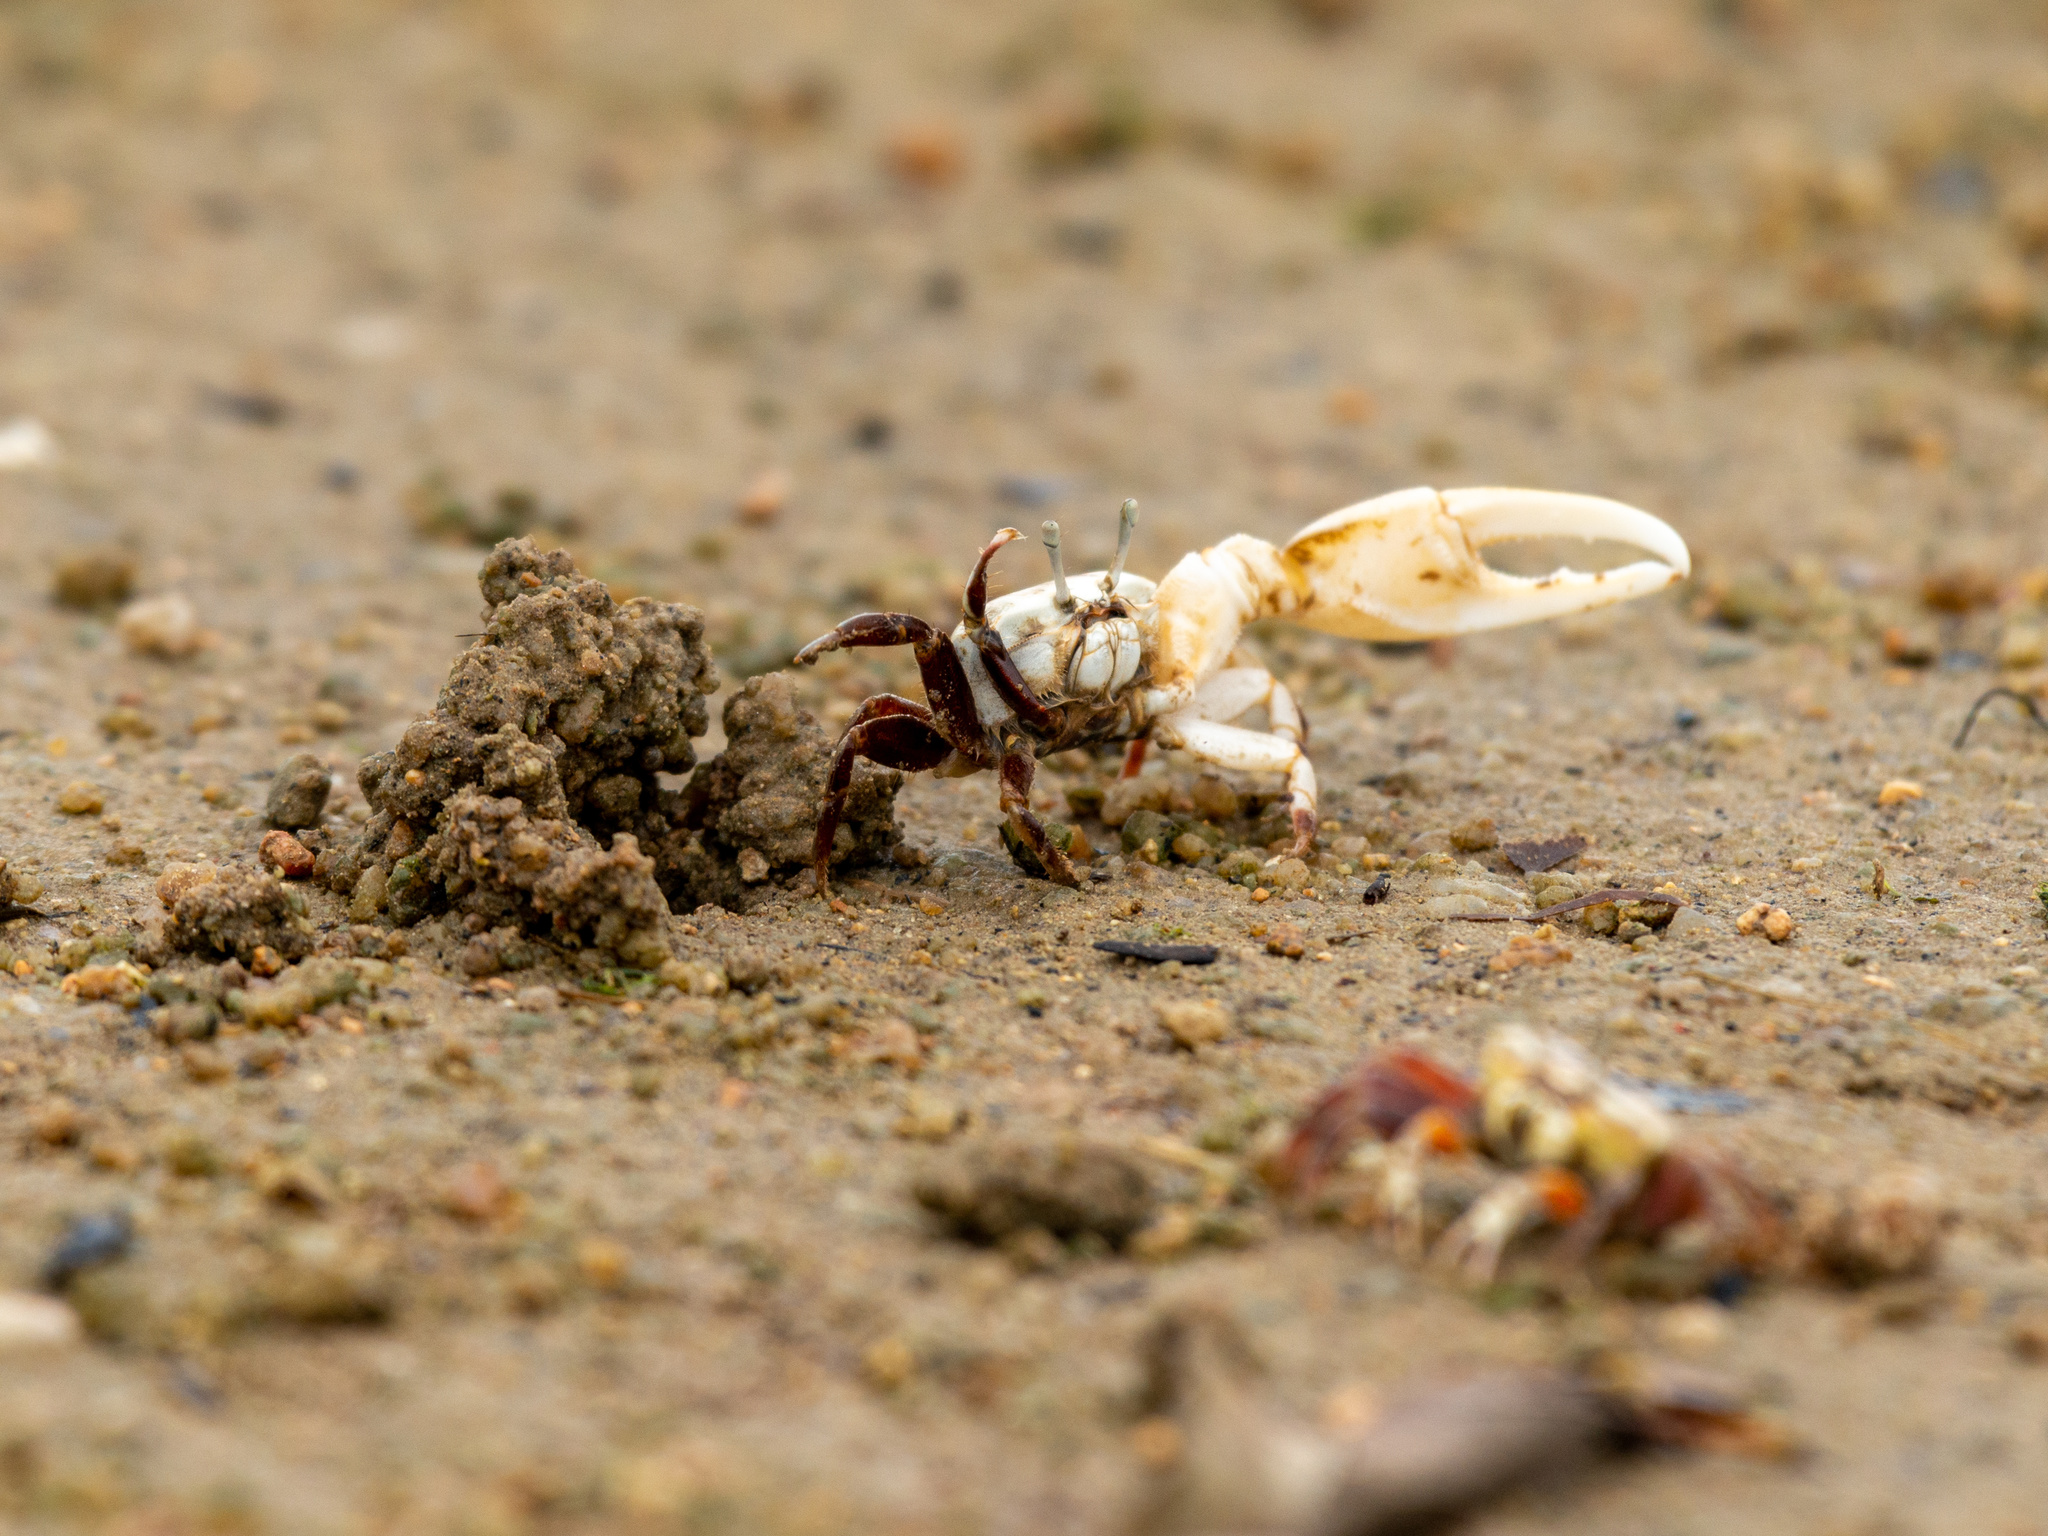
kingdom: Animalia
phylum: Arthropoda
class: Malacostraca
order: Decapoda
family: Ocypodidae
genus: Austruca
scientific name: Austruca lactea
